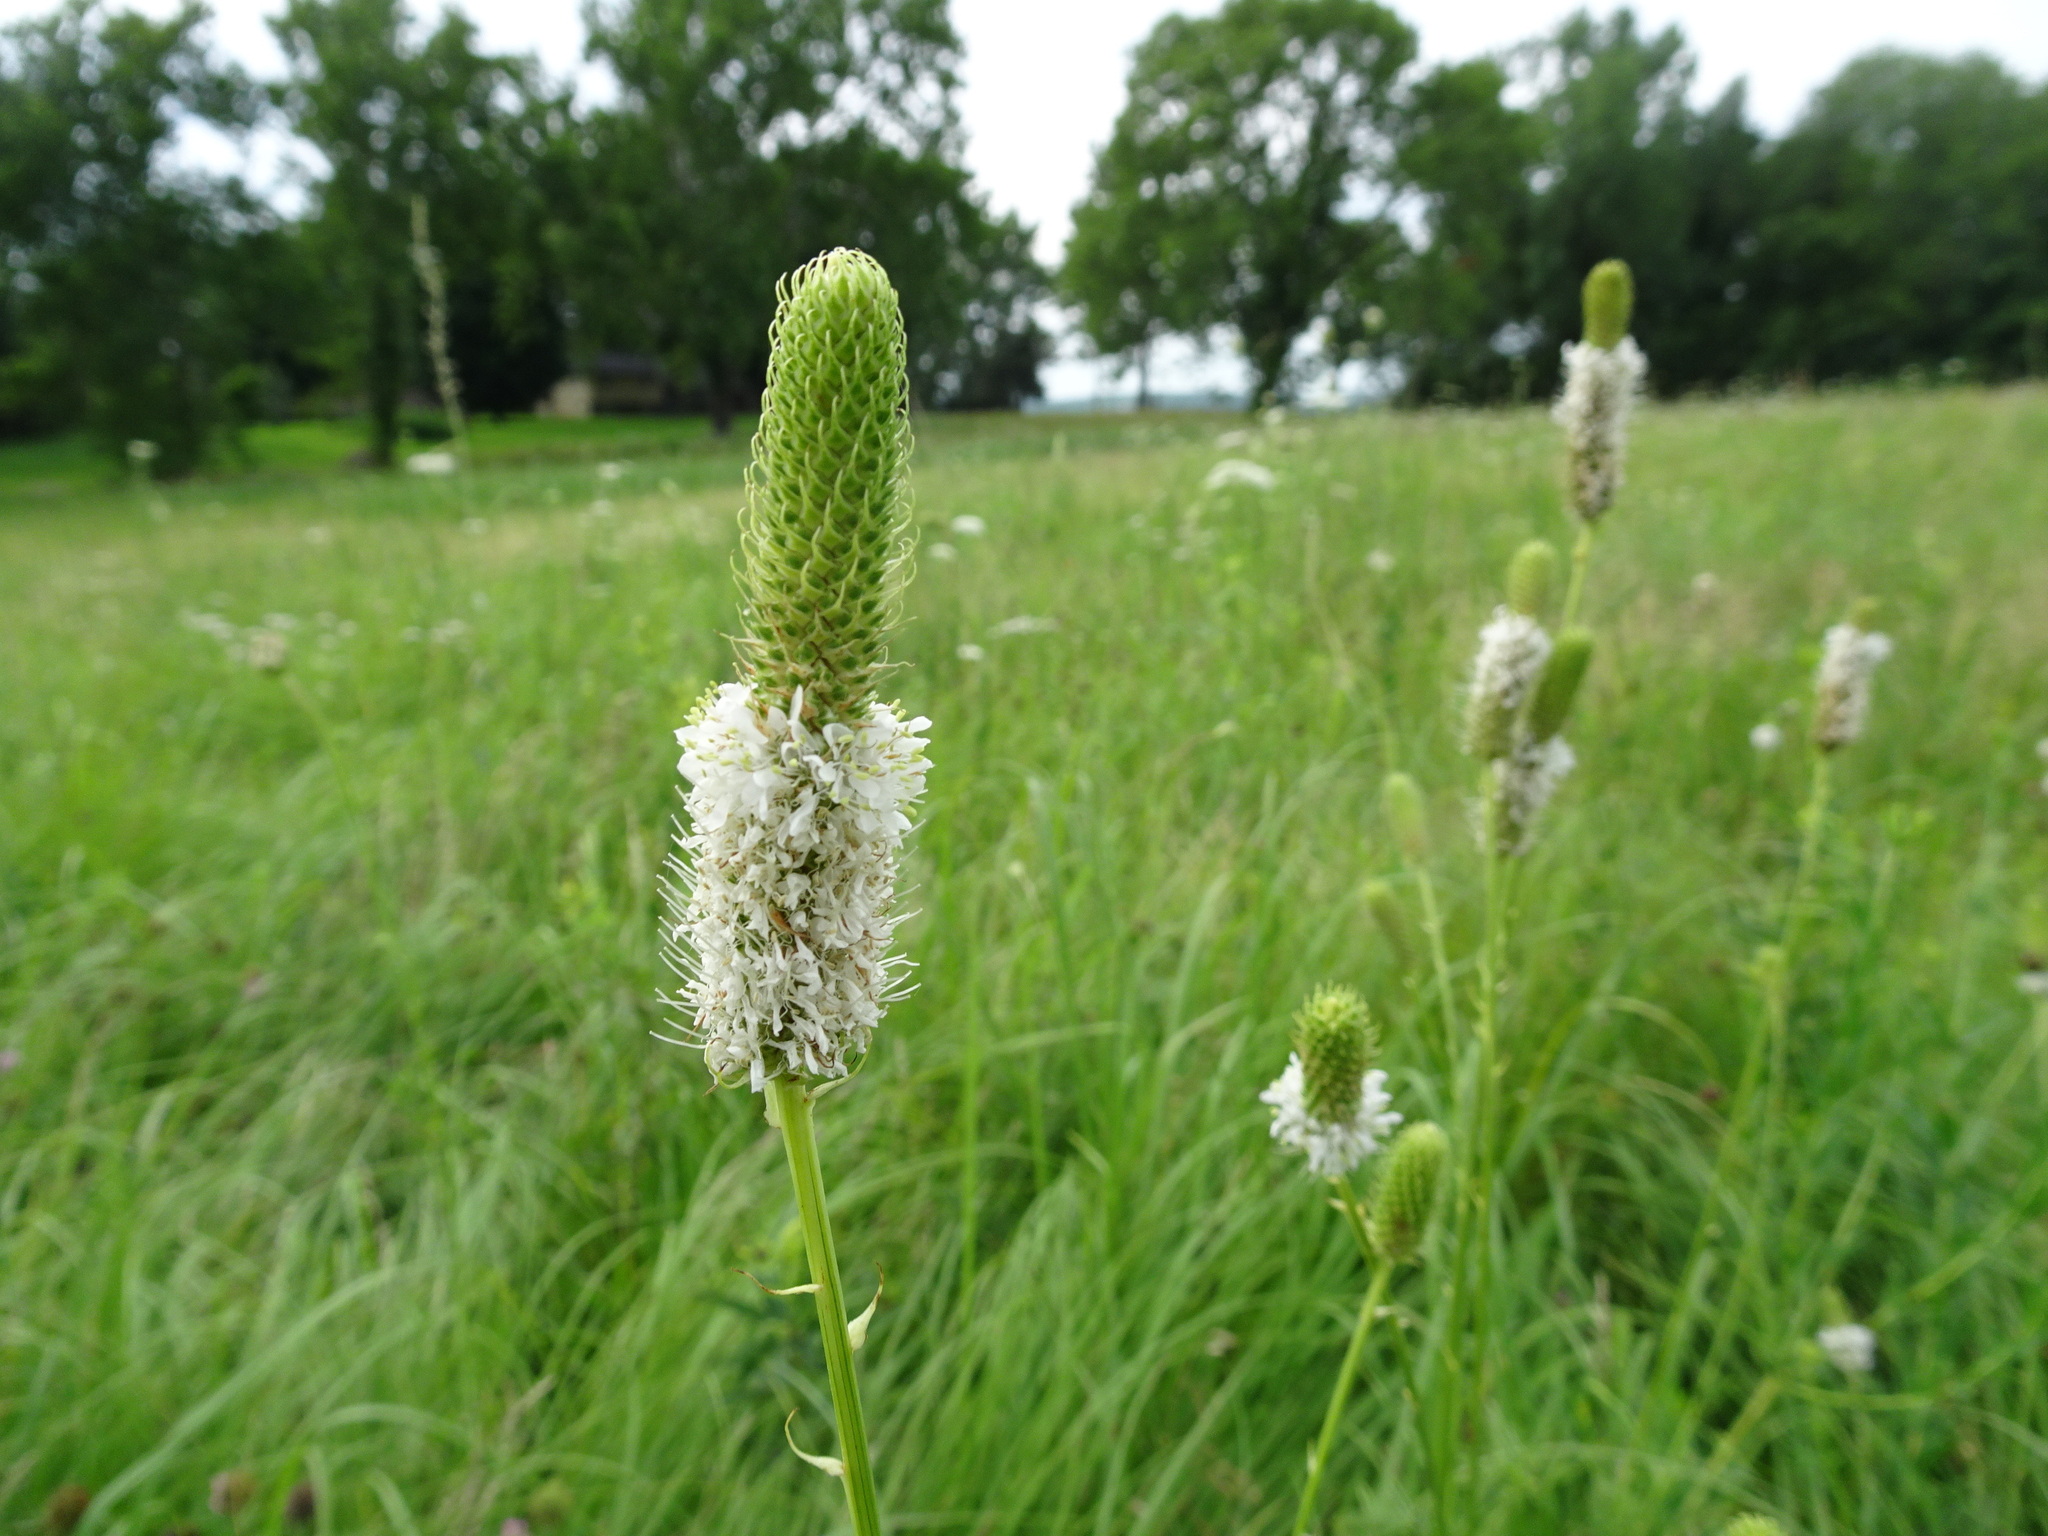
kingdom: Plantae
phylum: Tracheophyta
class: Magnoliopsida
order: Fabales
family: Fabaceae
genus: Dalea
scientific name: Dalea candida
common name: White prairie-clover
